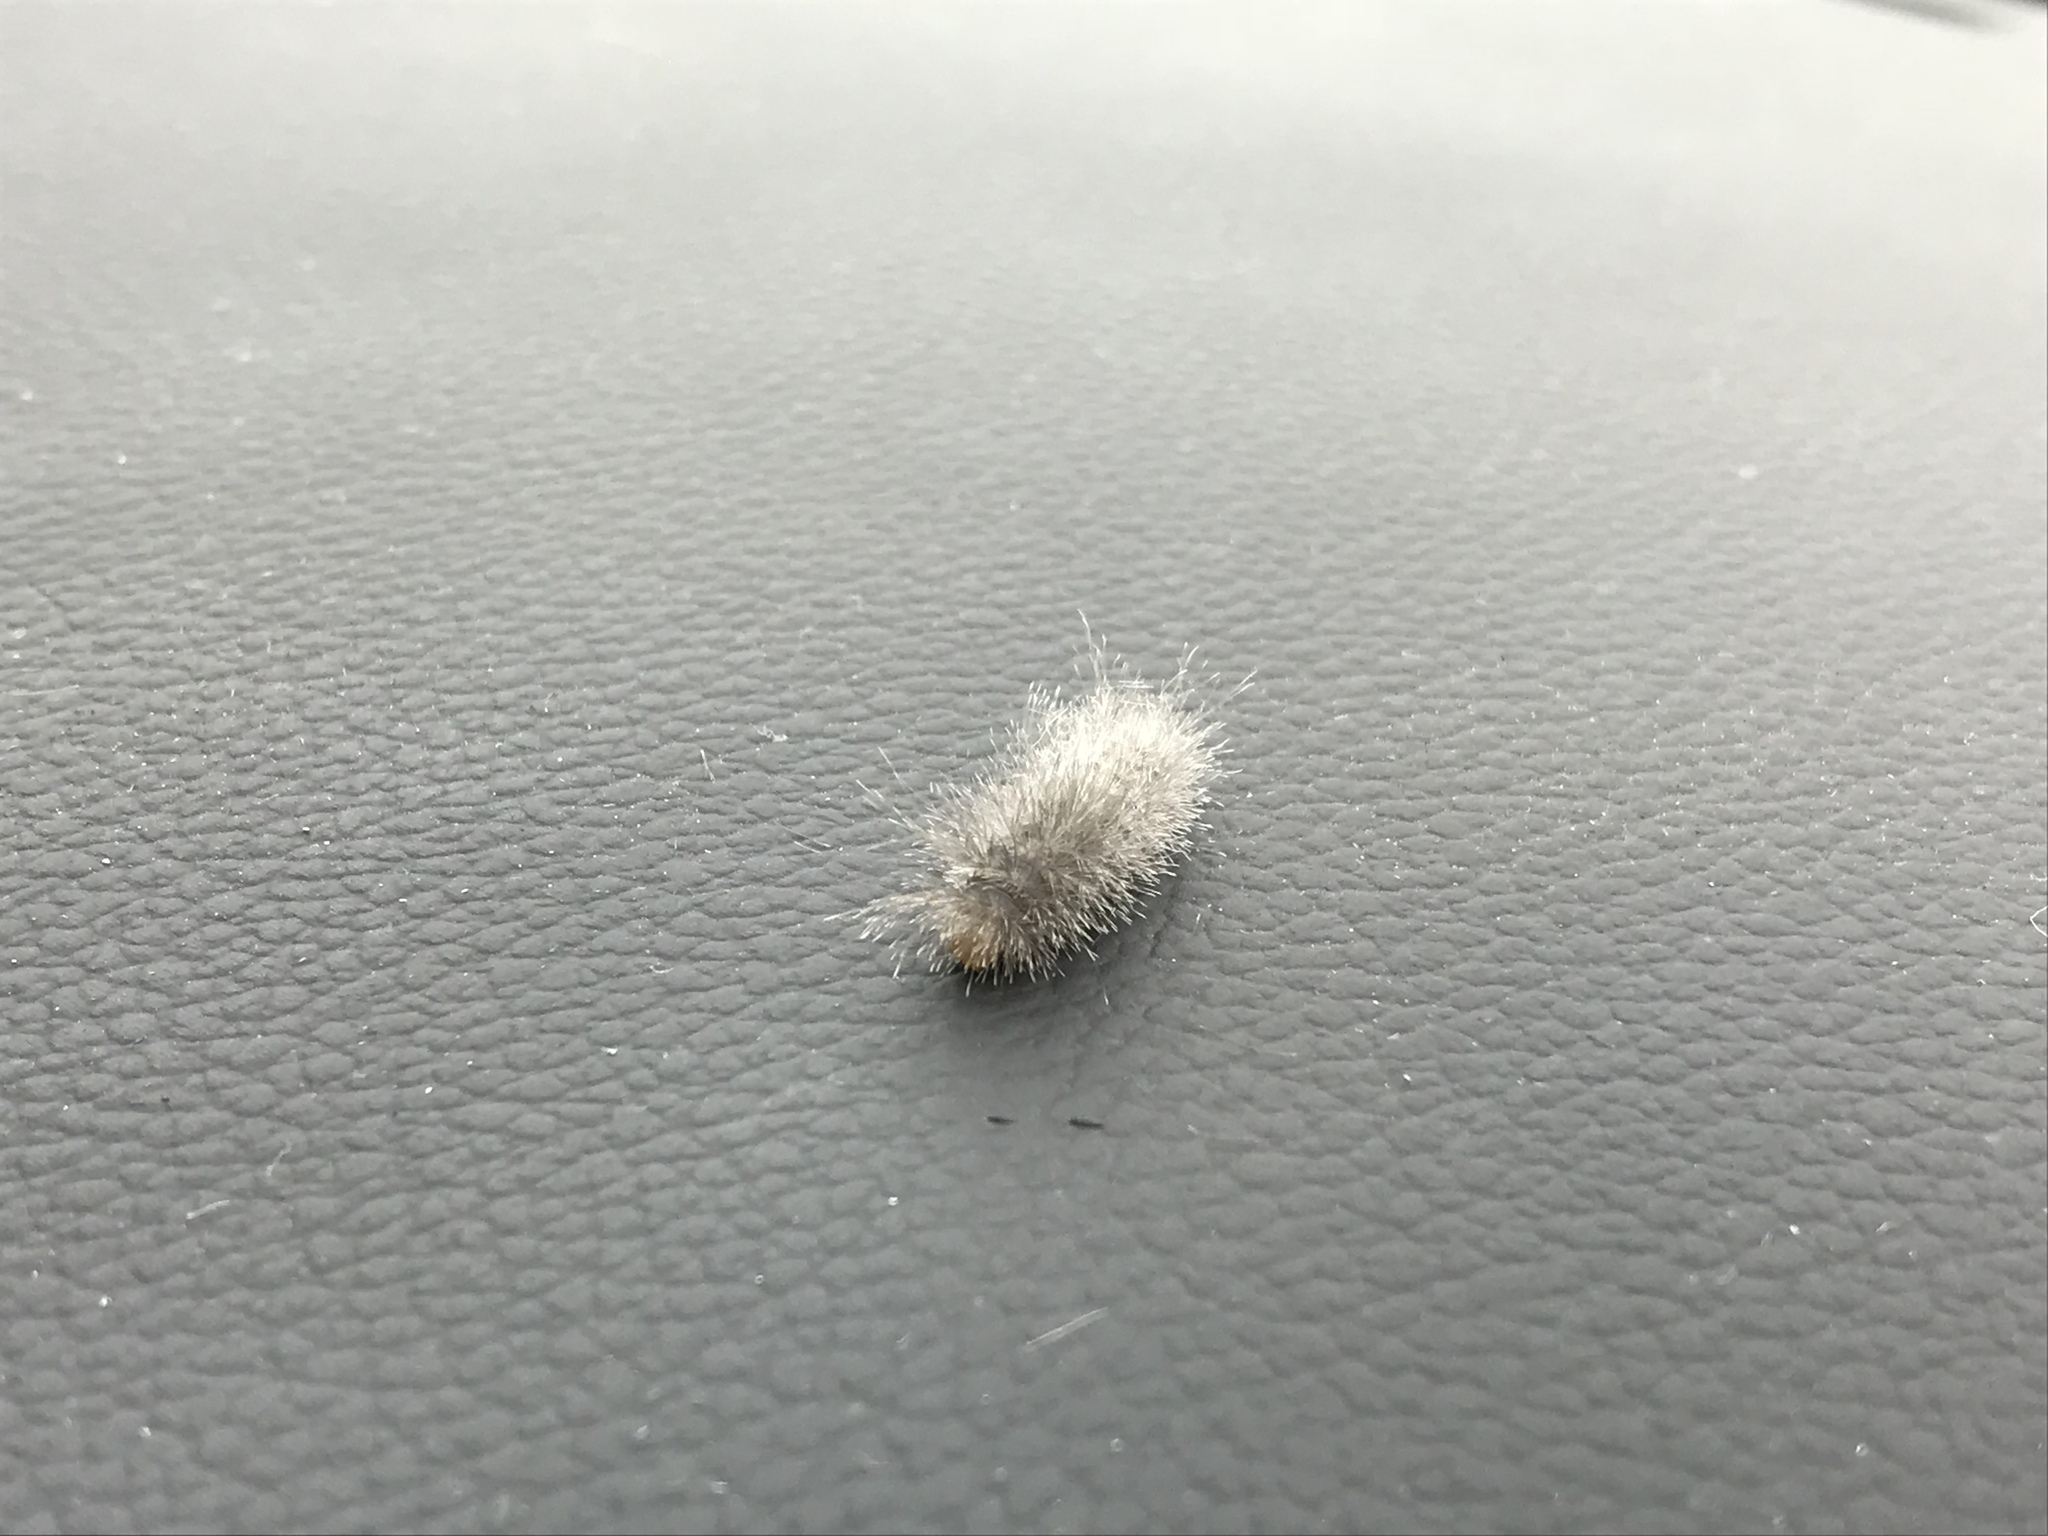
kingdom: Animalia
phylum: Arthropoda
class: Insecta
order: Lepidoptera
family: Erebidae
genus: Cycnia
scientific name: Cycnia tenera
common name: Delicate cycnia moth
